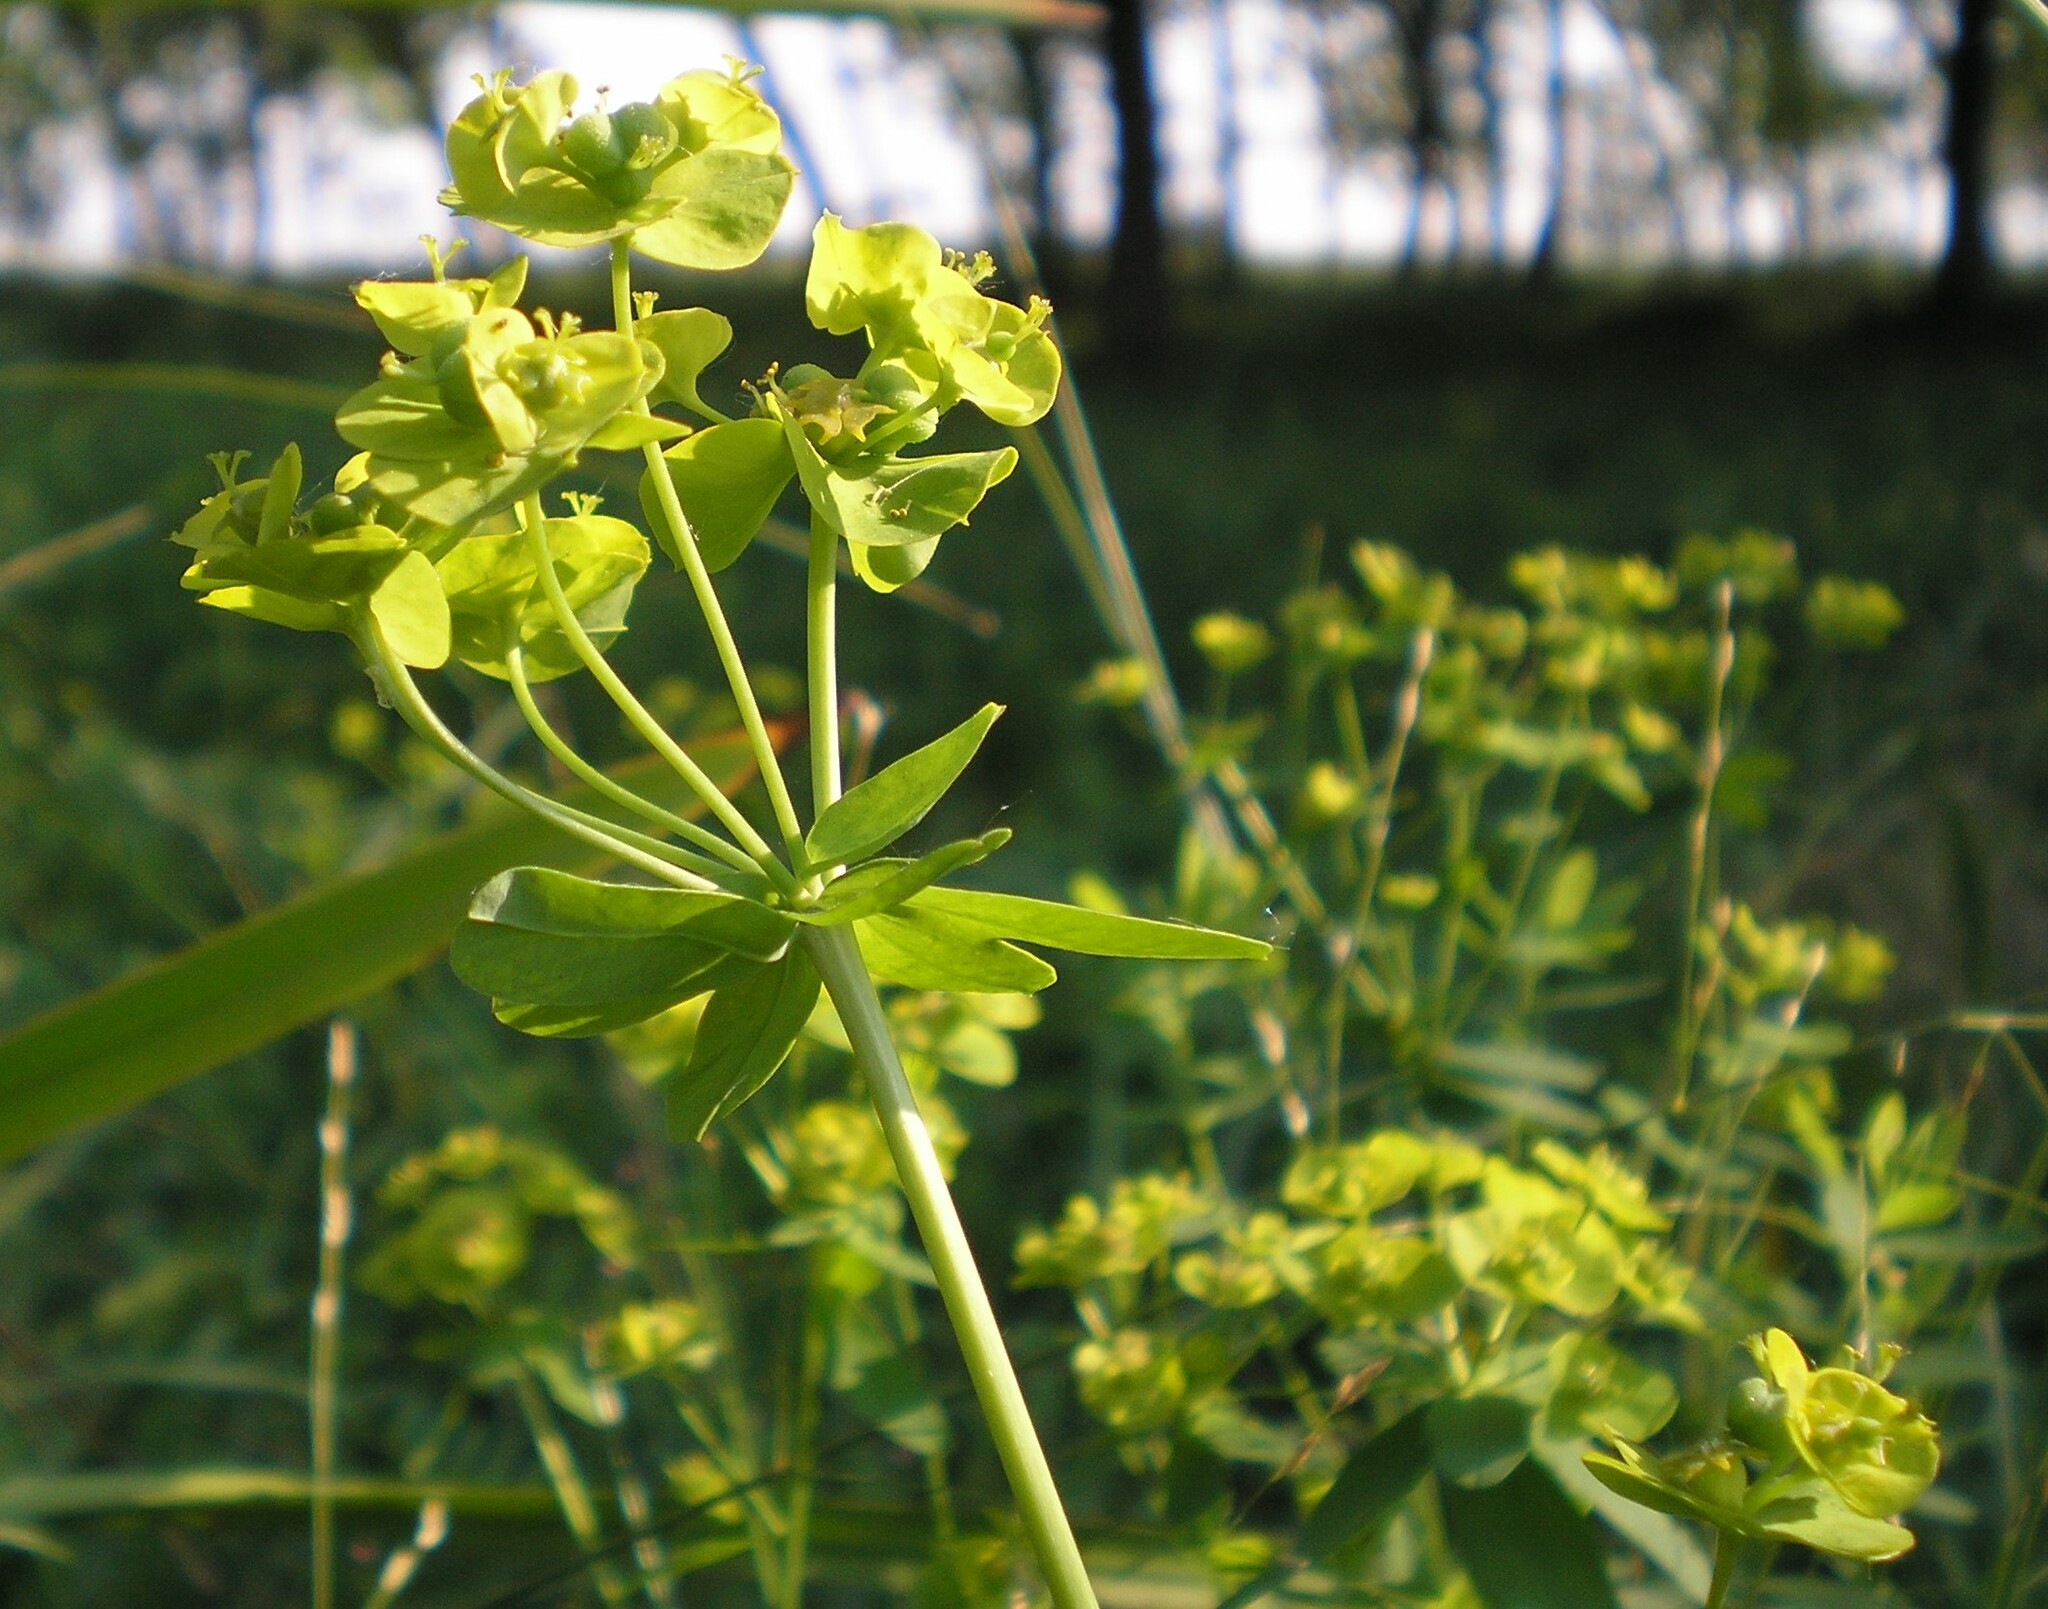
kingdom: Plantae
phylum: Tracheophyta
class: Magnoliopsida
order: Malpighiales
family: Euphorbiaceae
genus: Euphorbia
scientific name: Euphorbia esula
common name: Leafy spurge
